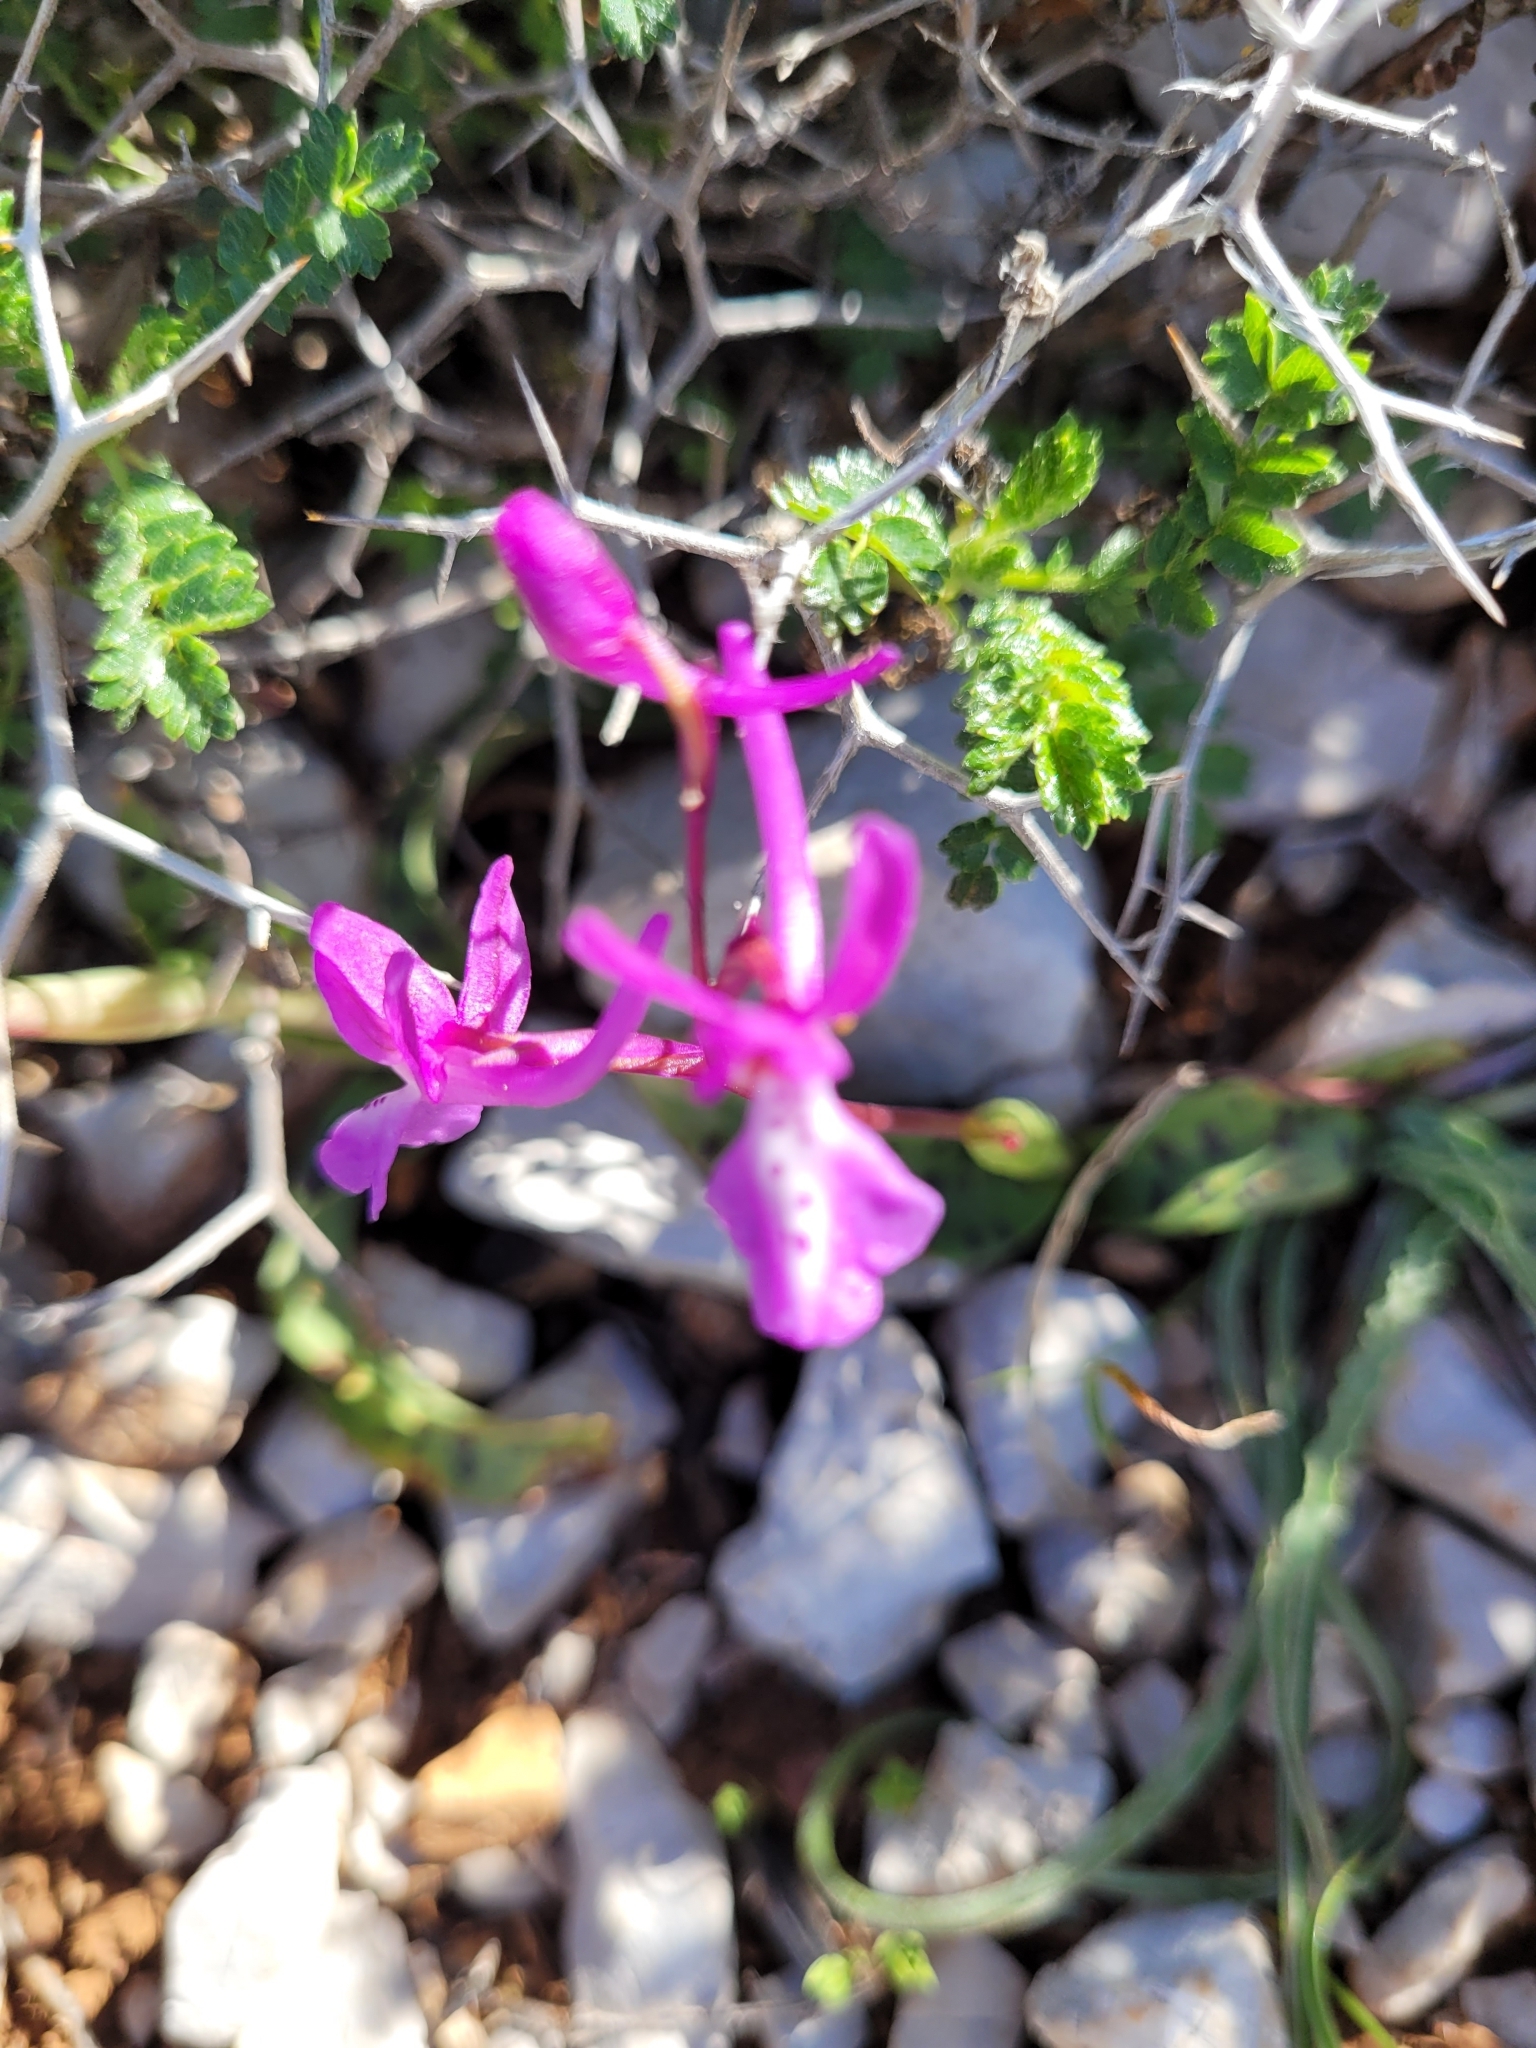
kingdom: Plantae
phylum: Tracheophyta
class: Liliopsida
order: Asparagales
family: Orchidaceae
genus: Orchis
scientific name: Orchis anatolica
